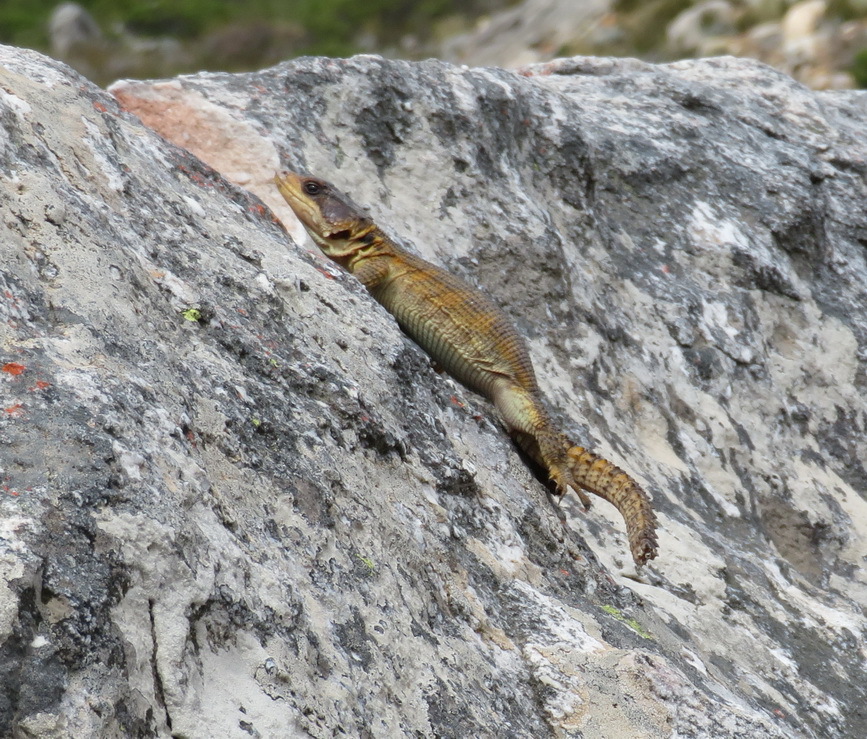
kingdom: Animalia
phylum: Chordata
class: Squamata
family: Cordylidae
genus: Pseudocordylus
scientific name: Pseudocordylus microlepidotus
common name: Cape crag lizard
